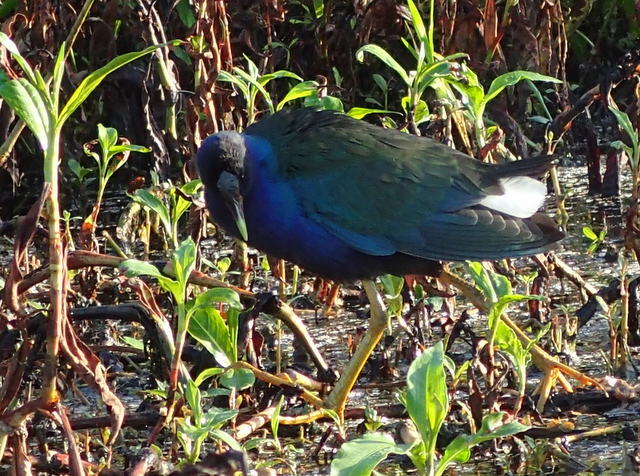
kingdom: Animalia
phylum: Chordata
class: Aves
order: Gruiformes
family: Rallidae
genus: Porphyrio
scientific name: Porphyrio martinica
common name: Purple gallinule
